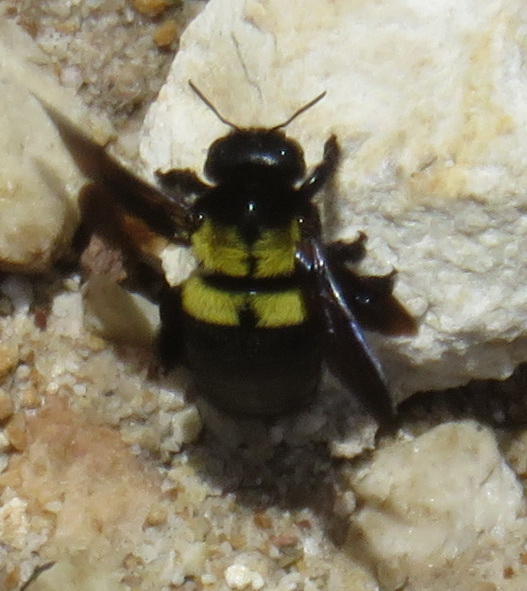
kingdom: Animalia
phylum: Arthropoda
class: Insecta
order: Hymenoptera
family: Apidae
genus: Xylocopa
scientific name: Xylocopa caffra
